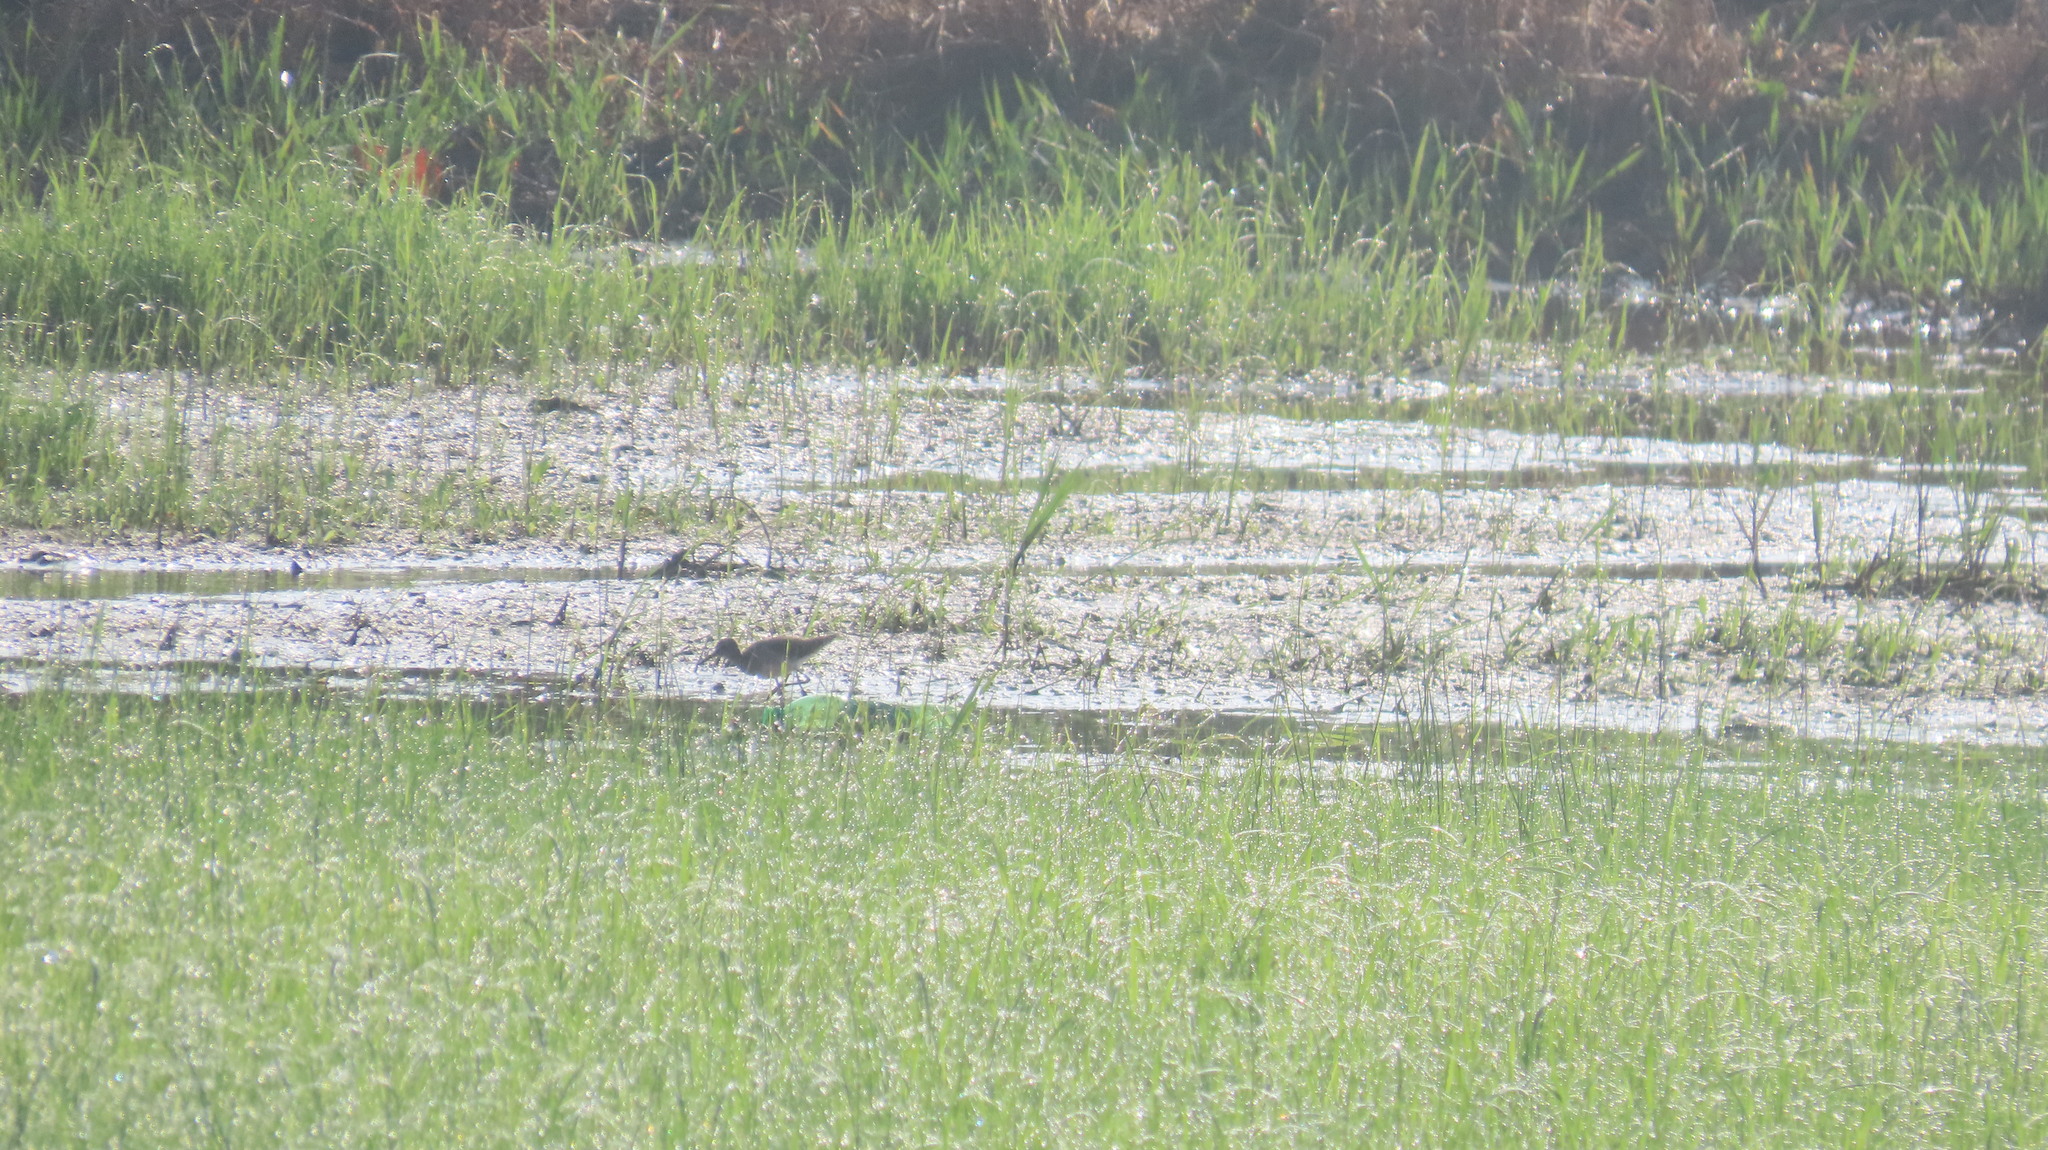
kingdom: Animalia
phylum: Chordata
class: Aves
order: Charadriiformes
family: Scolopacidae
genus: Tringa
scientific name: Tringa glareola
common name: Wood sandpiper
